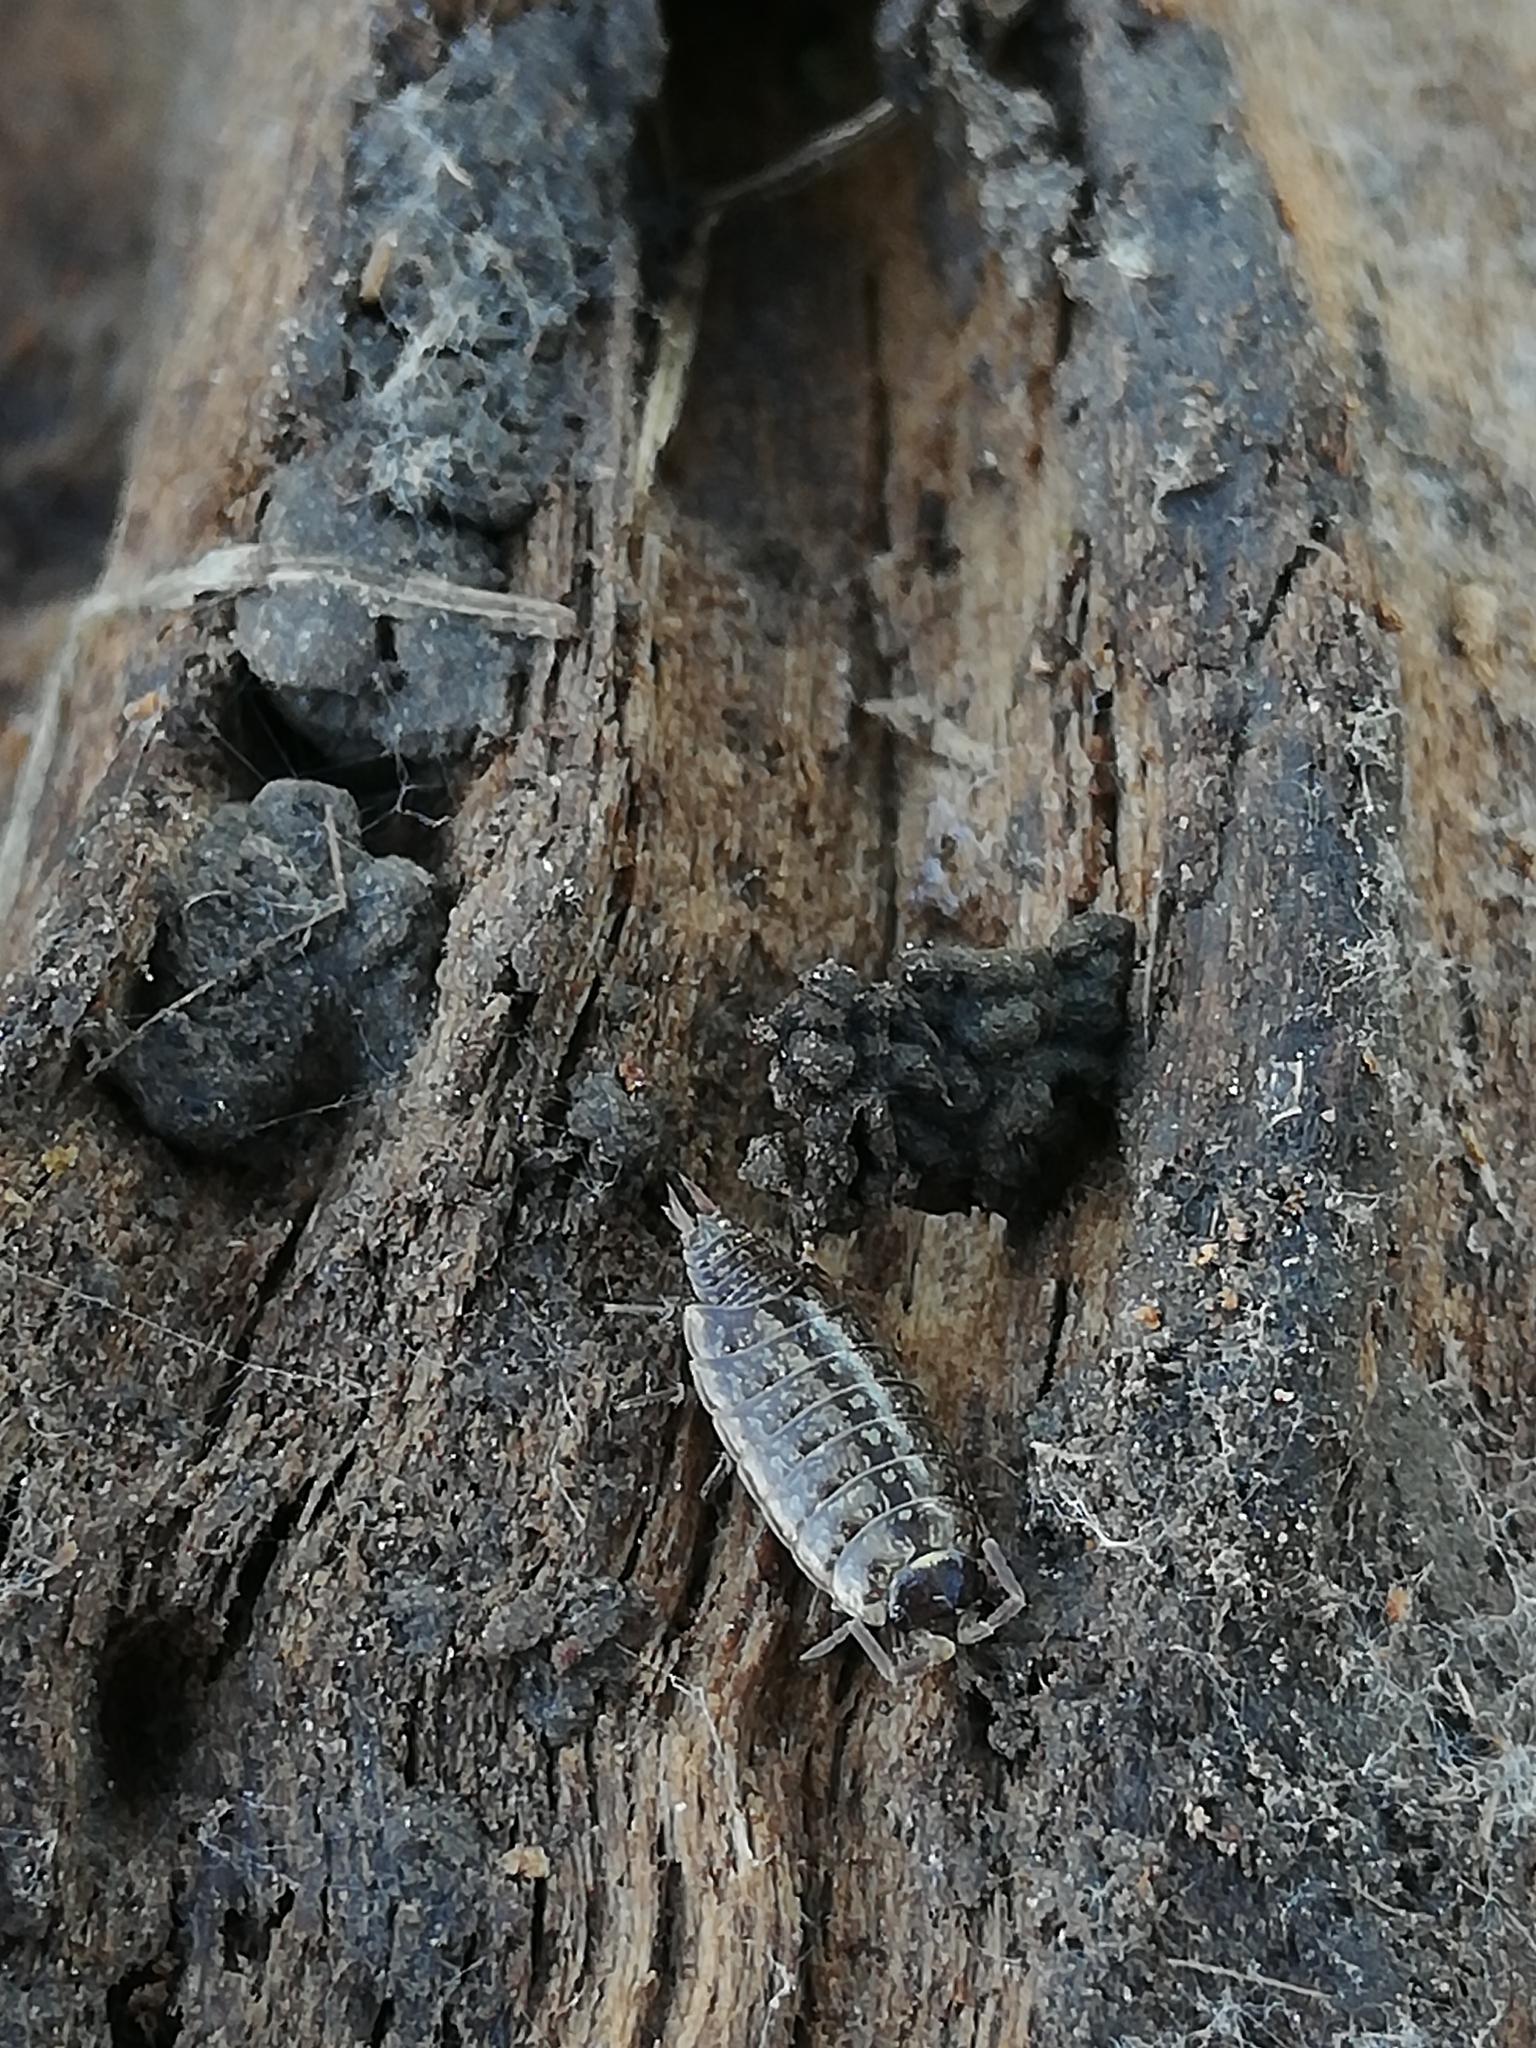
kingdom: Animalia
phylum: Arthropoda
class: Malacostraca
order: Isopoda
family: Philosciidae
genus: Philoscia
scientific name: Philoscia muscorum
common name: Common striped woodlouse
